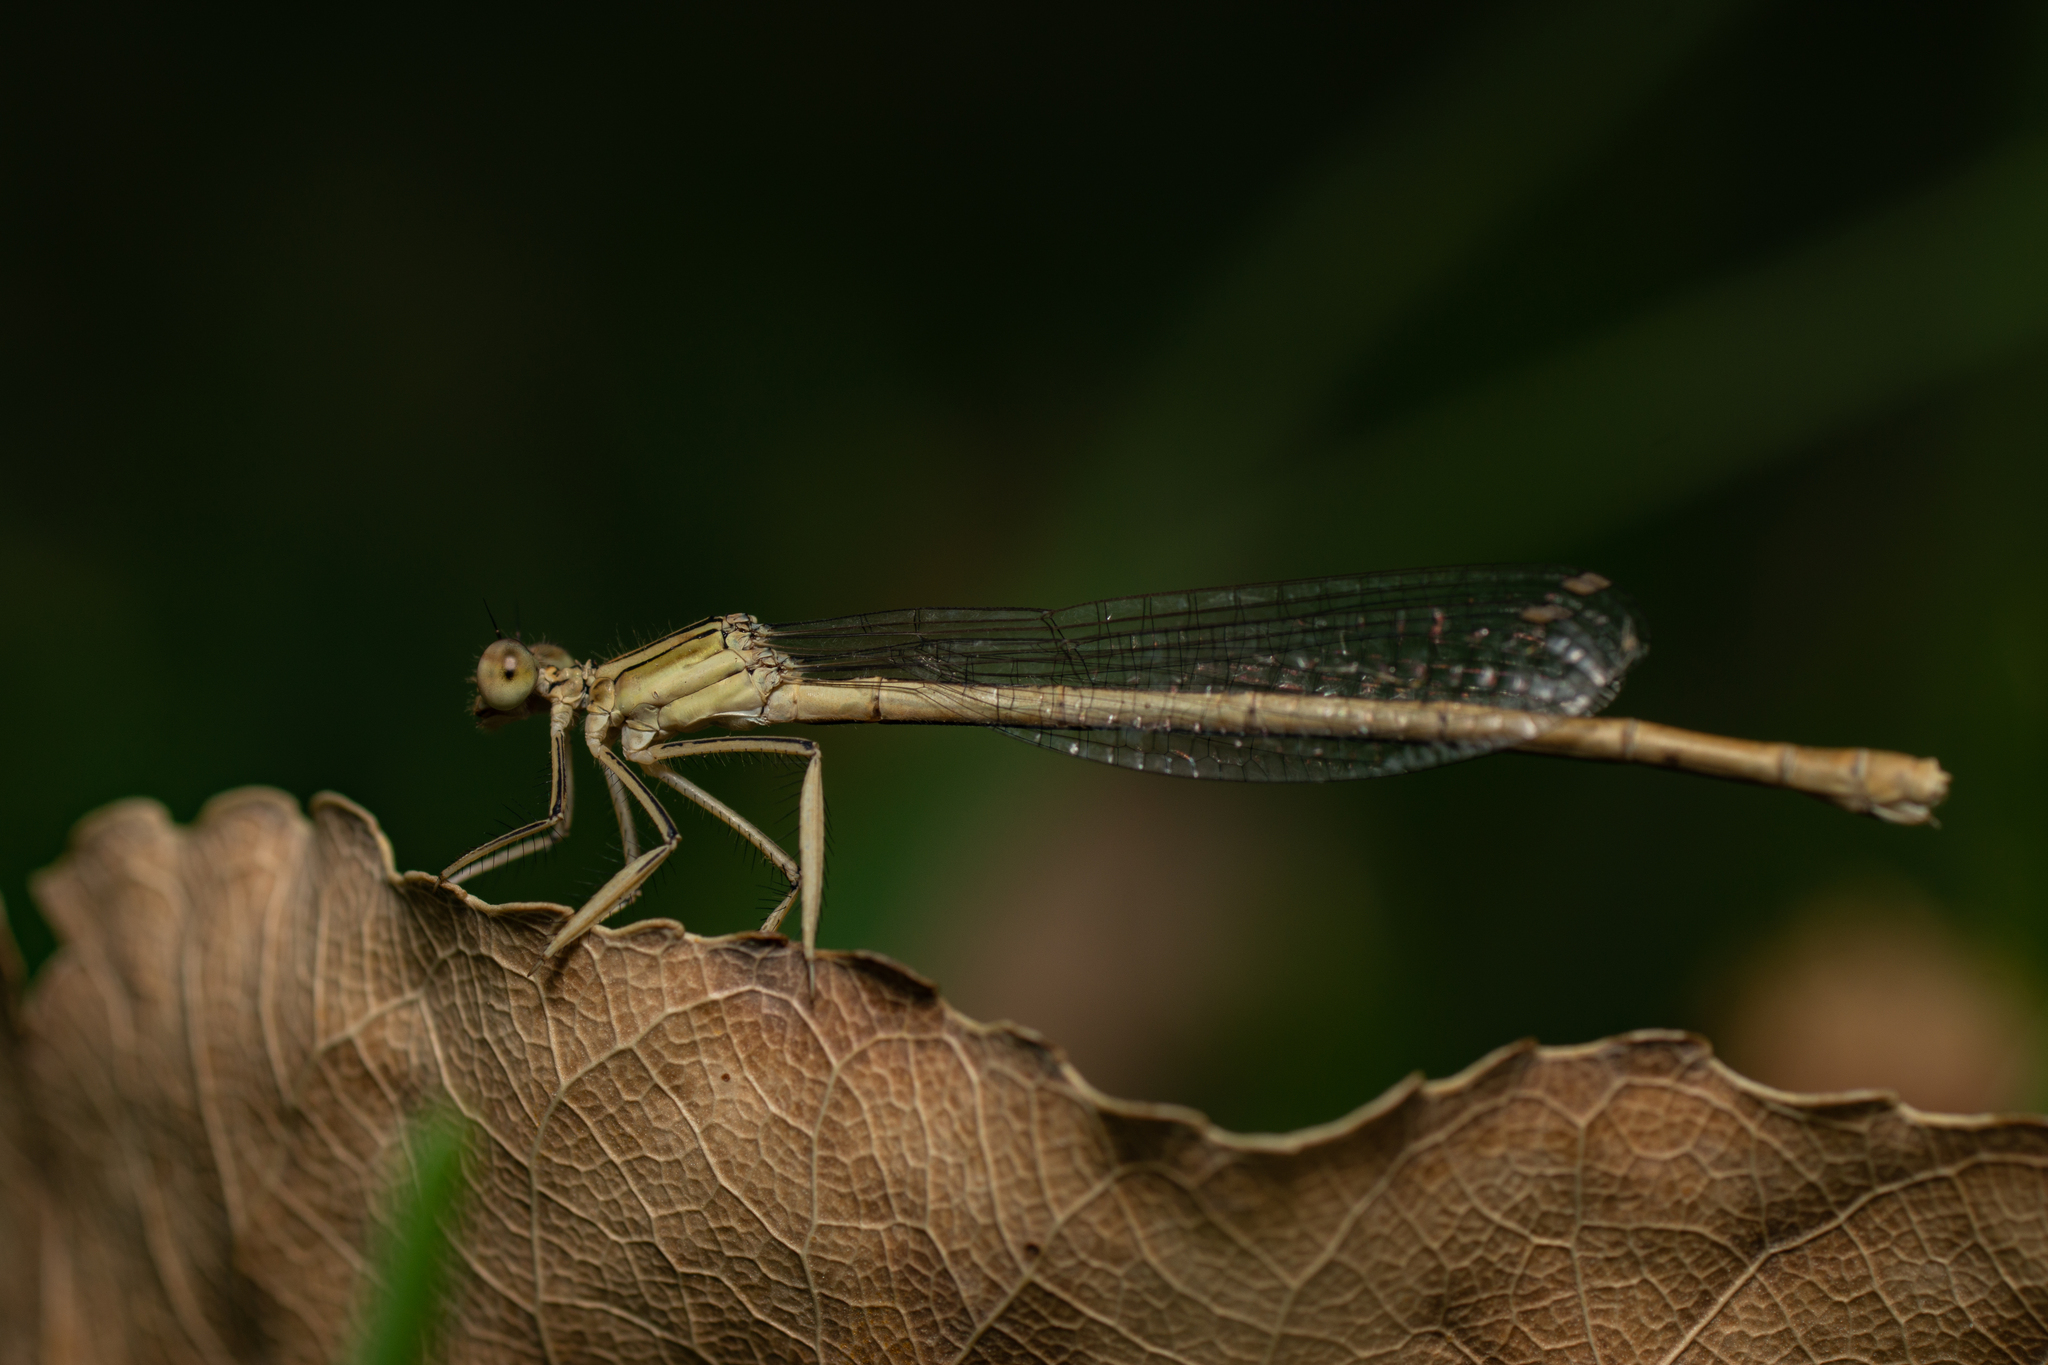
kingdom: Animalia
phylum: Arthropoda
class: Insecta
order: Odonata
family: Platycnemididae
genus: Platycnemis
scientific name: Platycnemis latipes
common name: White featherleg
